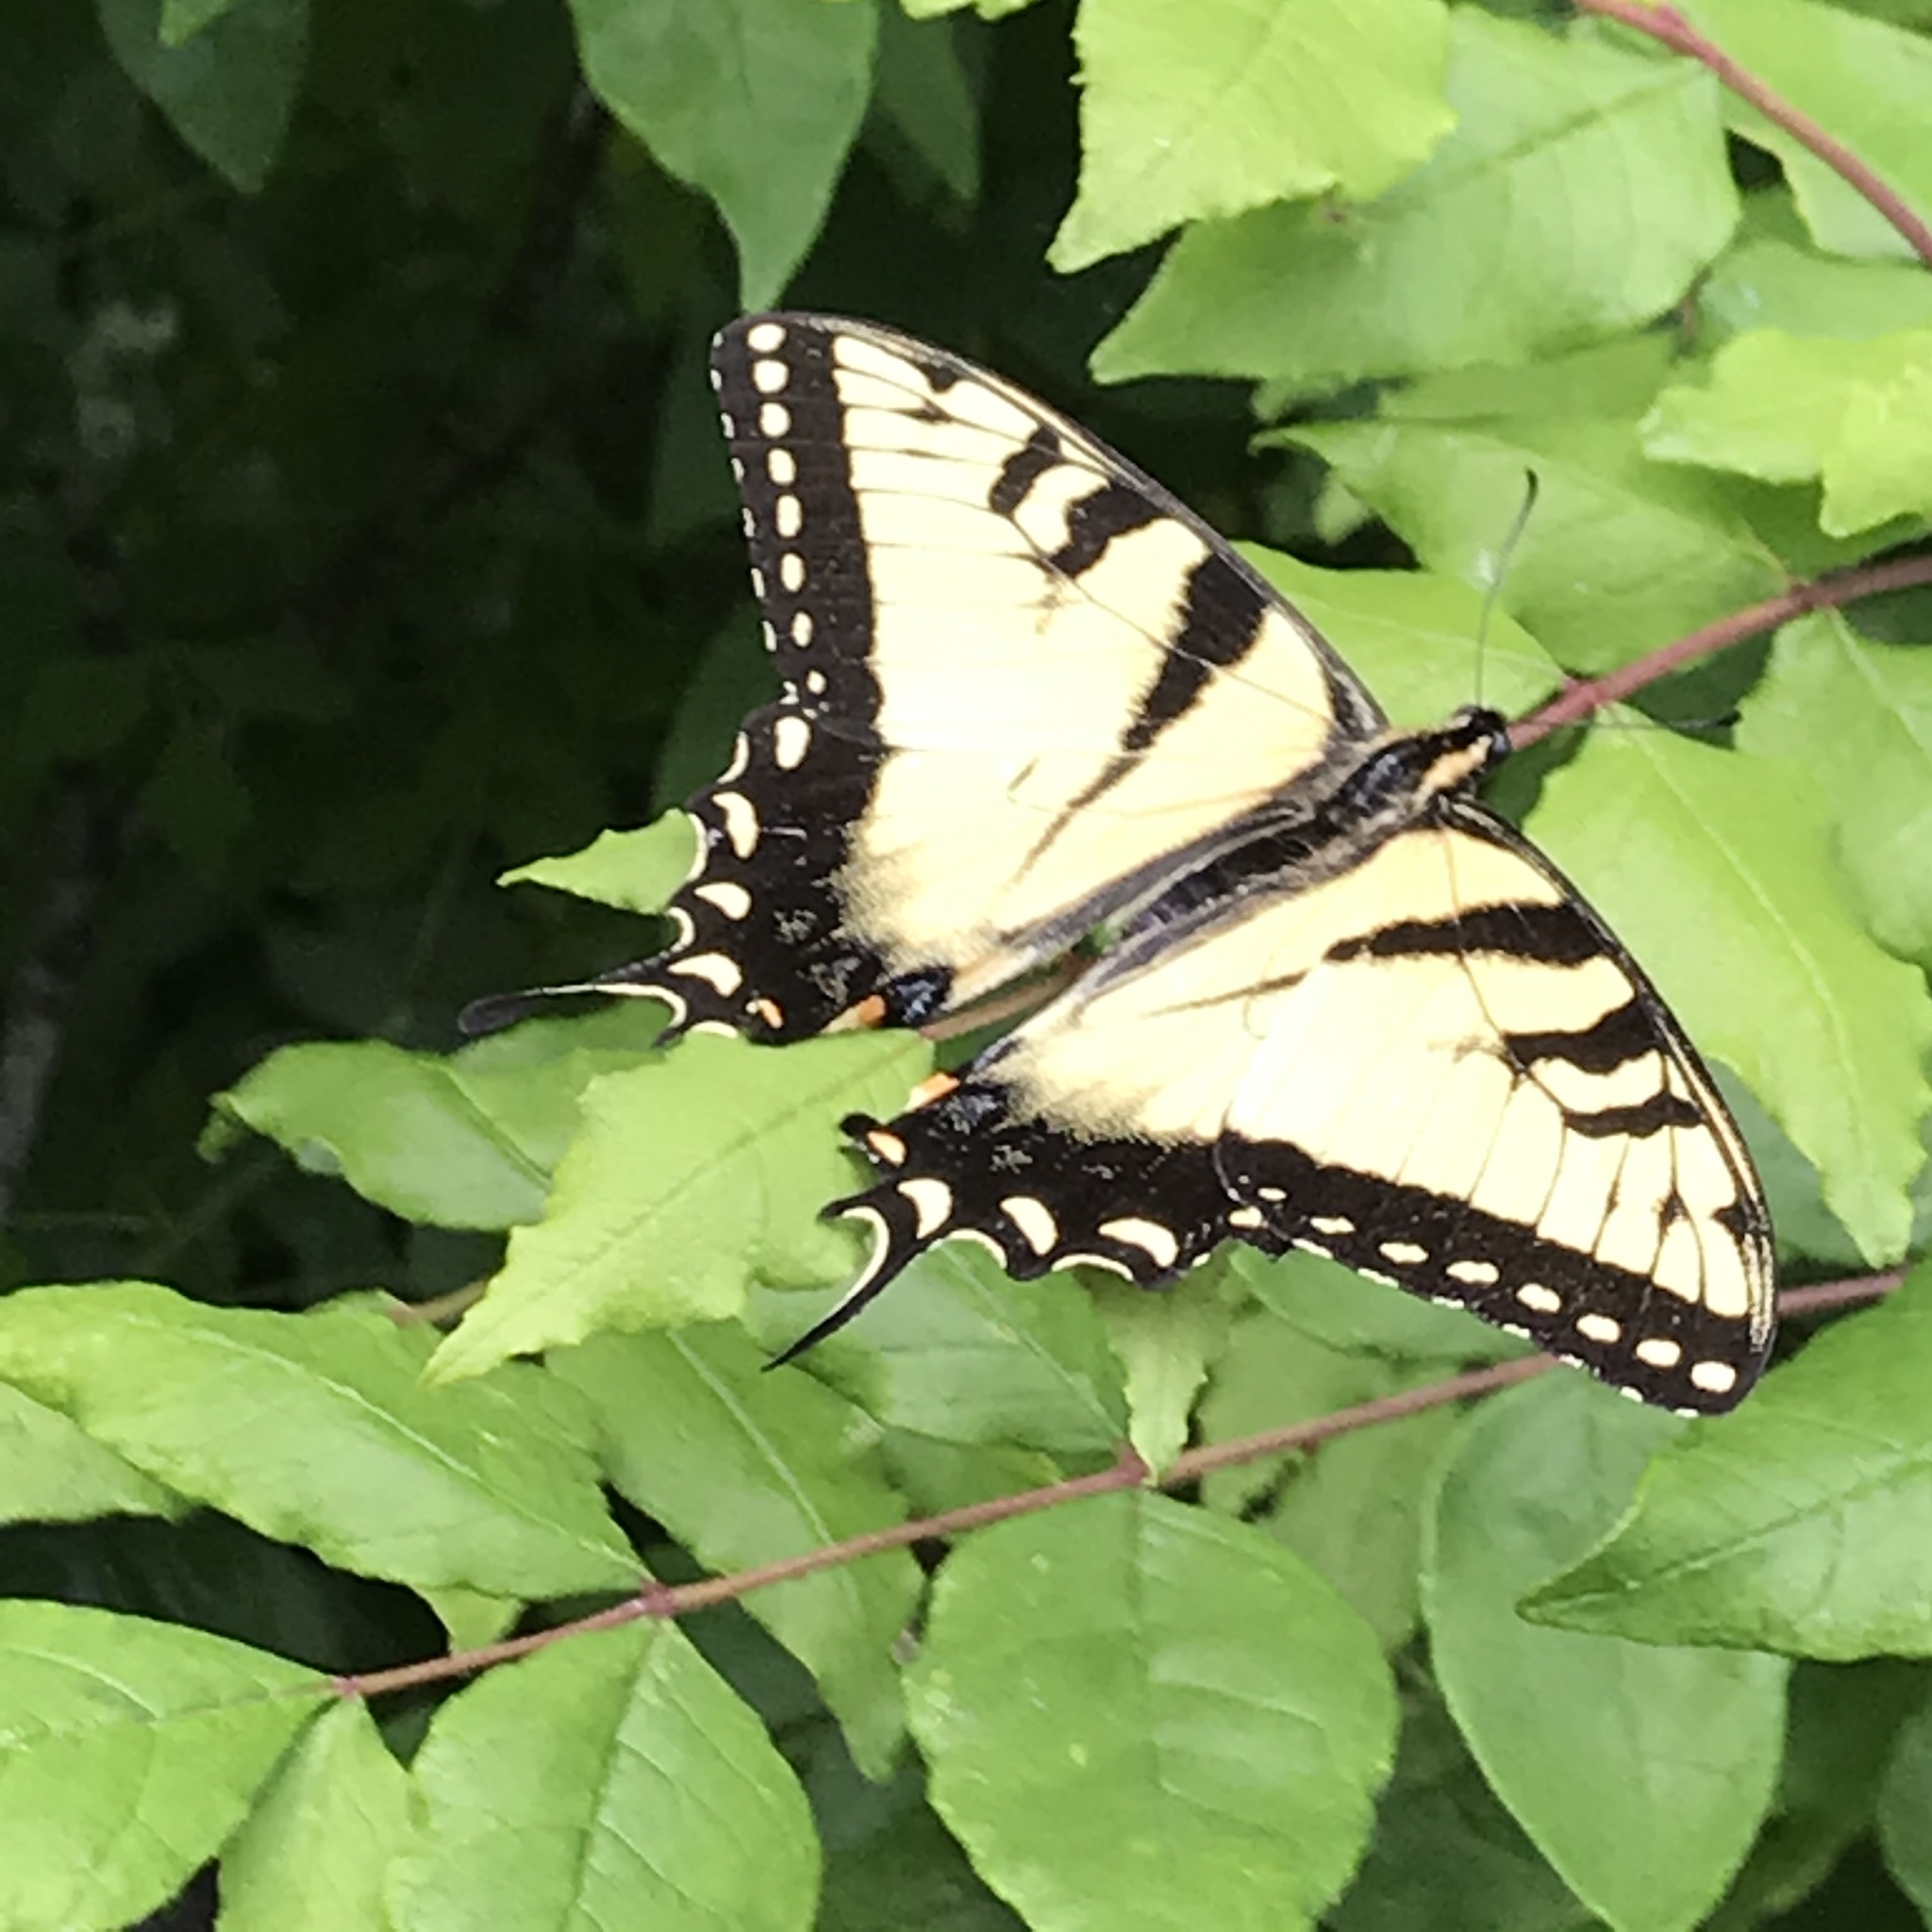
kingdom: Animalia
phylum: Arthropoda
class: Insecta
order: Lepidoptera
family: Papilionidae
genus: Papilio
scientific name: Papilio glaucus
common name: Tiger swallowtail
